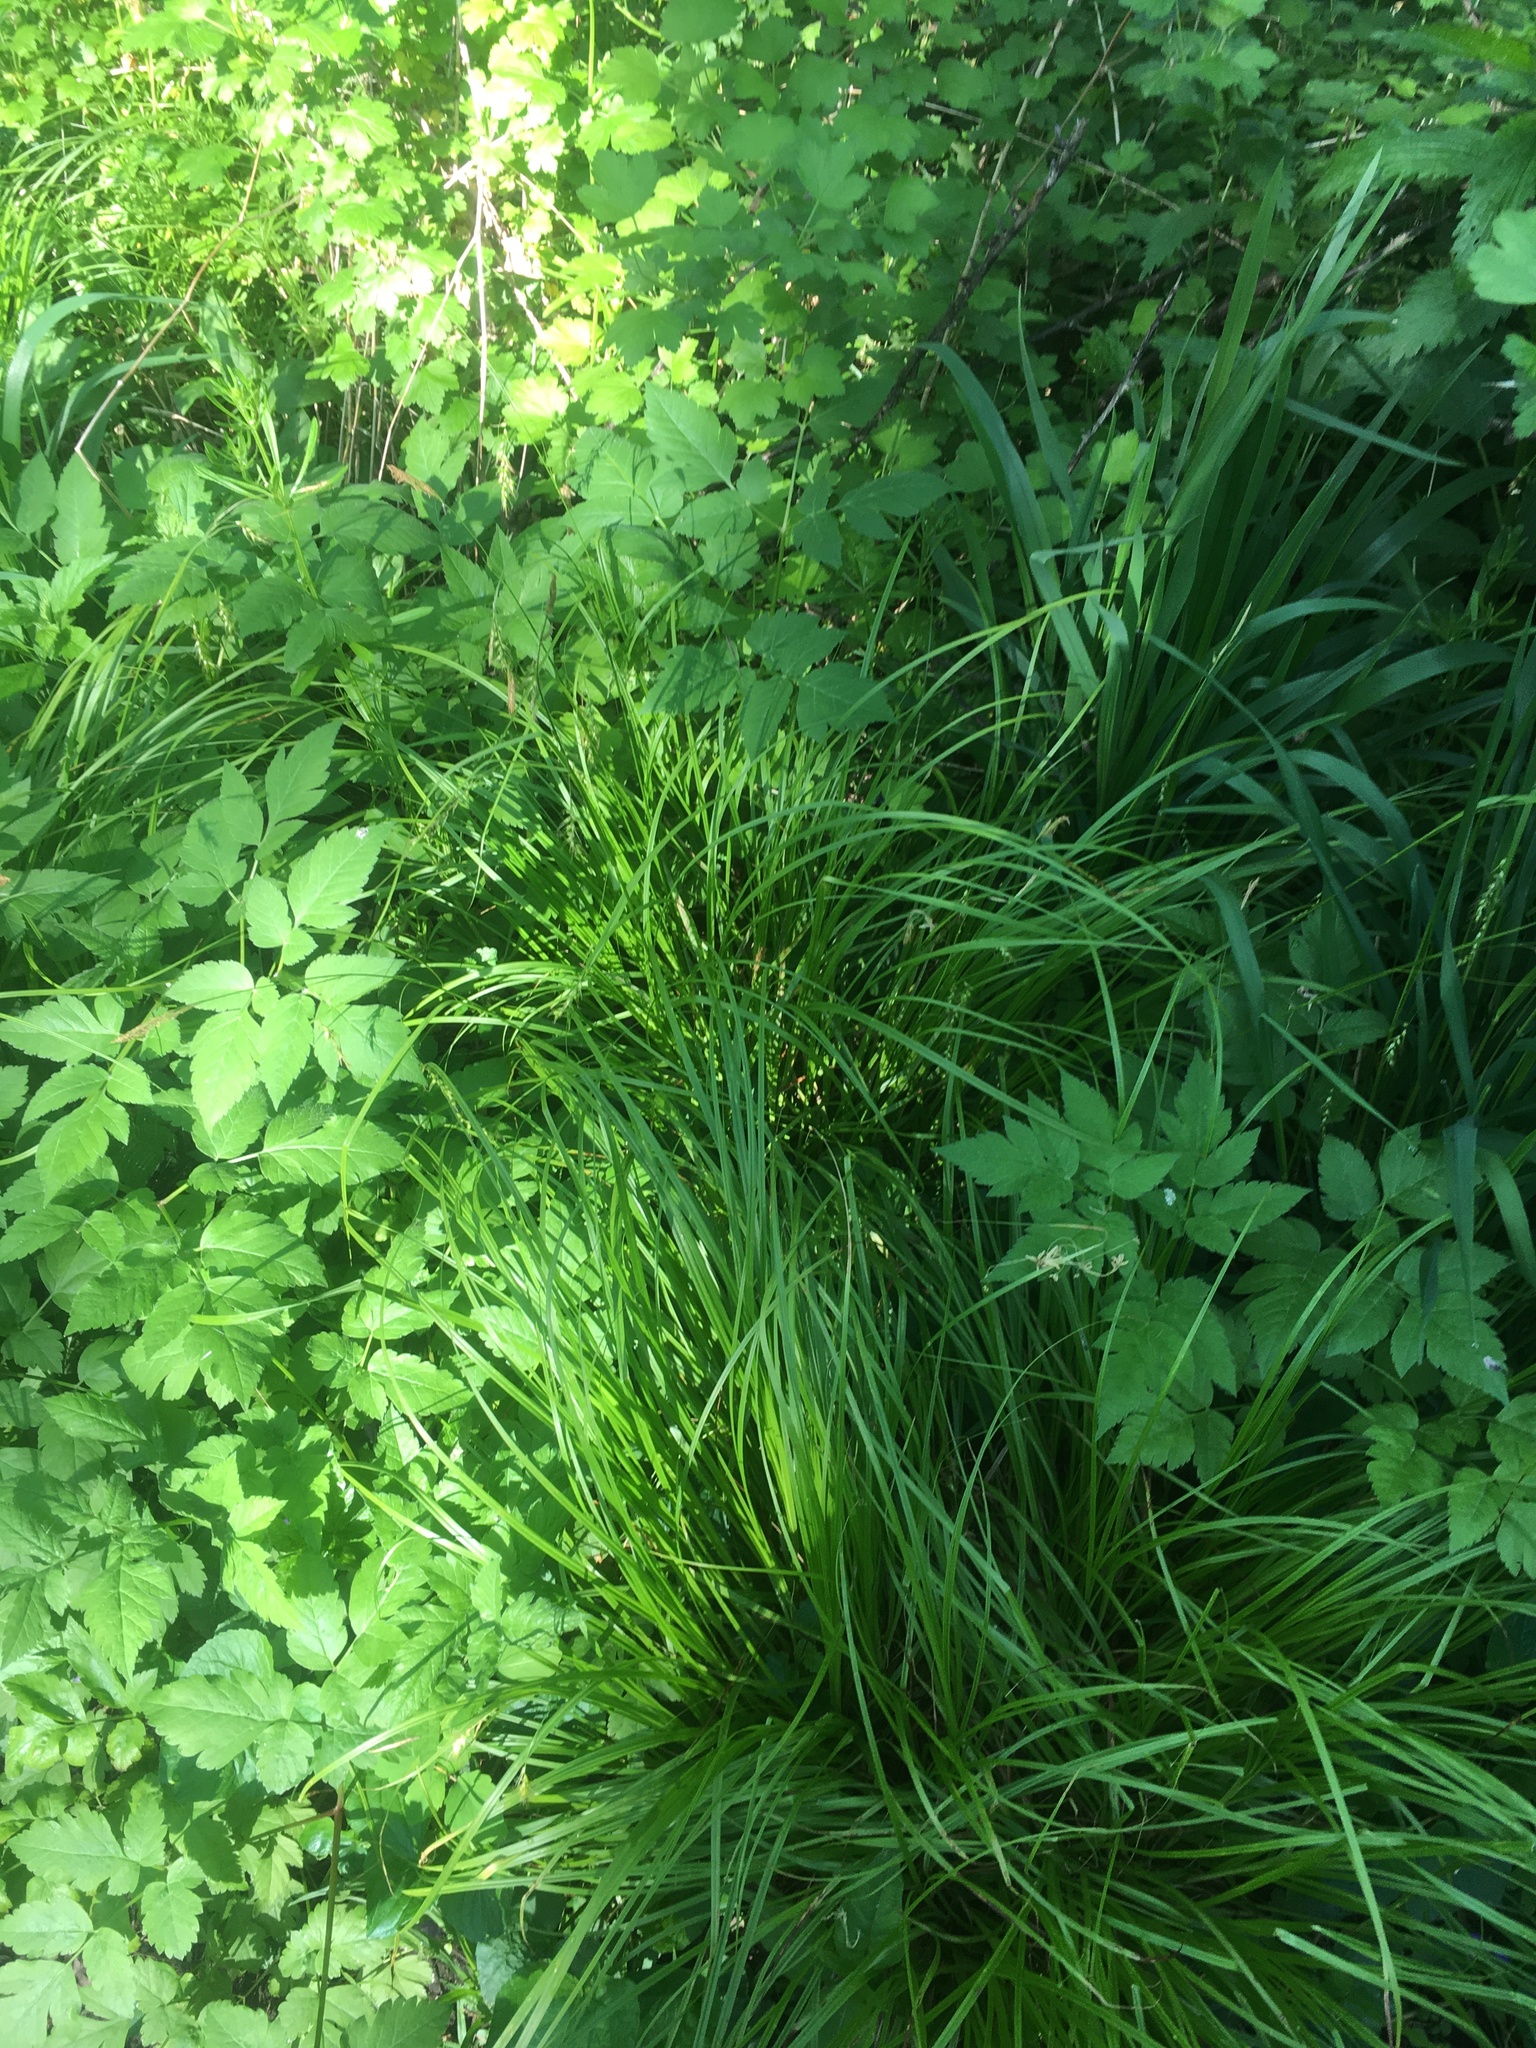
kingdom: Plantae
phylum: Tracheophyta
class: Liliopsida
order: Poales
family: Cyperaceae
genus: Carex
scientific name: Carex sprengelii
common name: Long-beaked sedge
